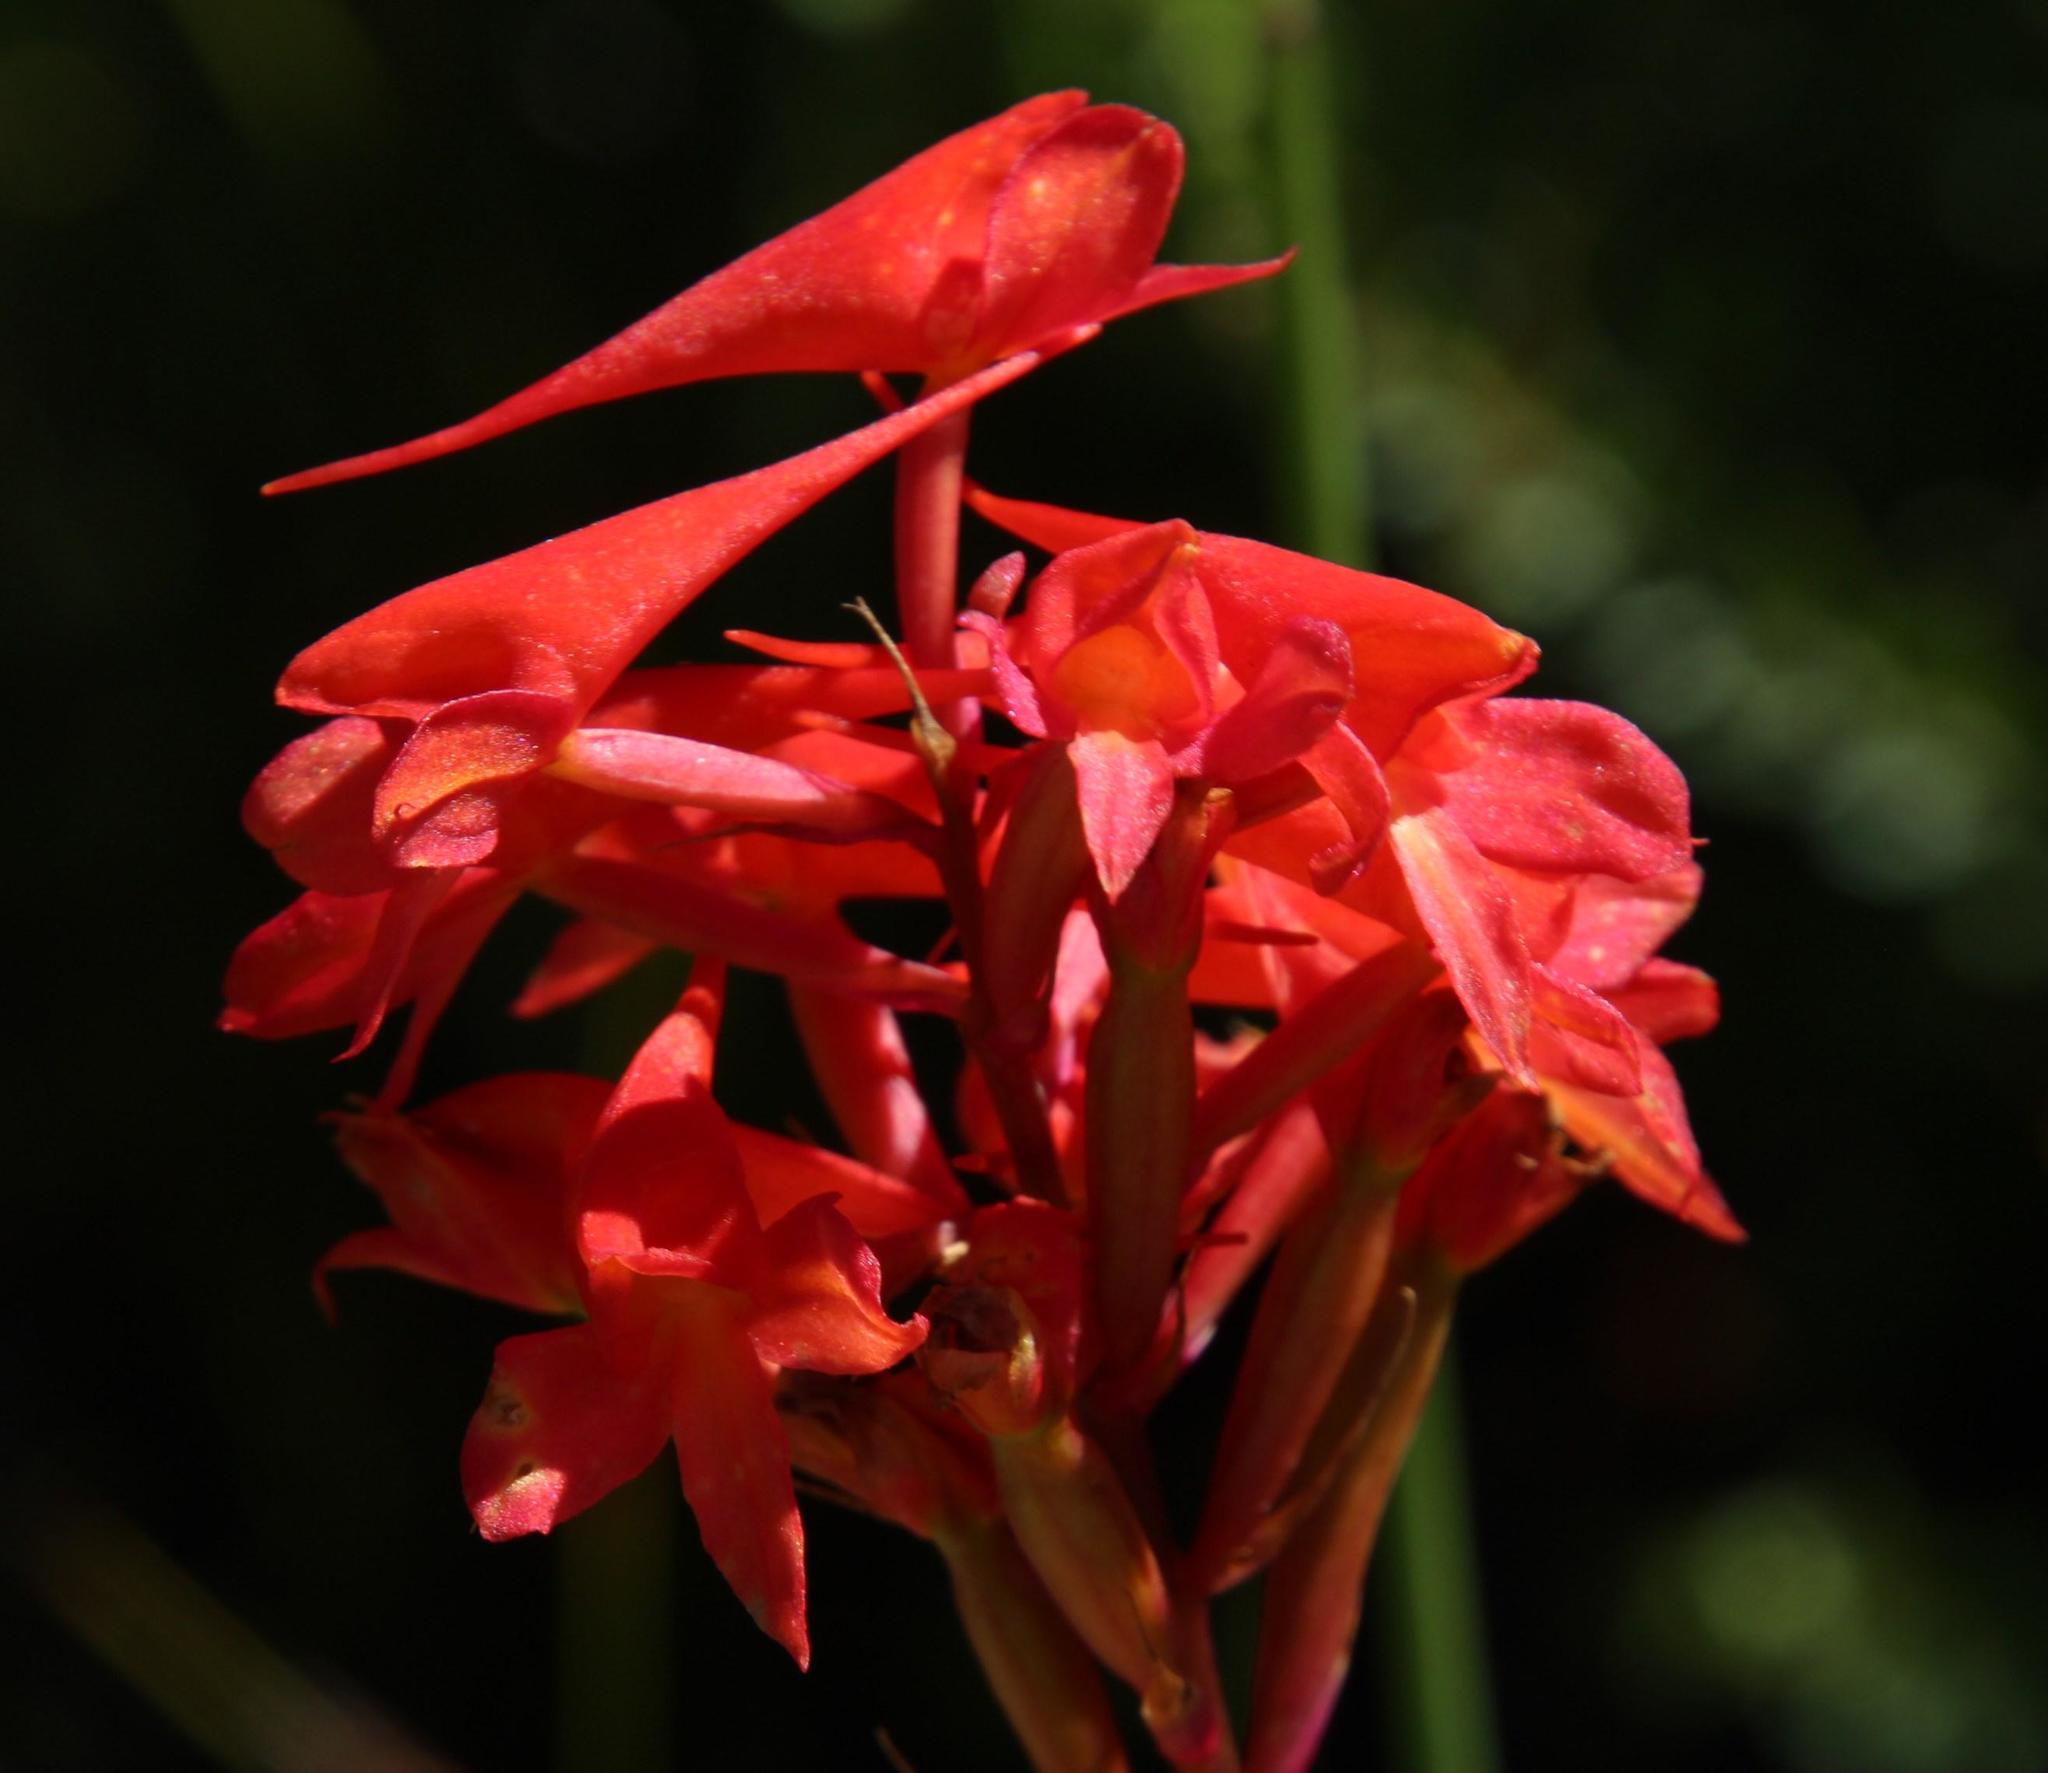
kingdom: Plantae
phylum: Tracheophyta
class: Liliopsida
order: Asparagales
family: Orchidaceae
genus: Disa
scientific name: Disa ferruginea
